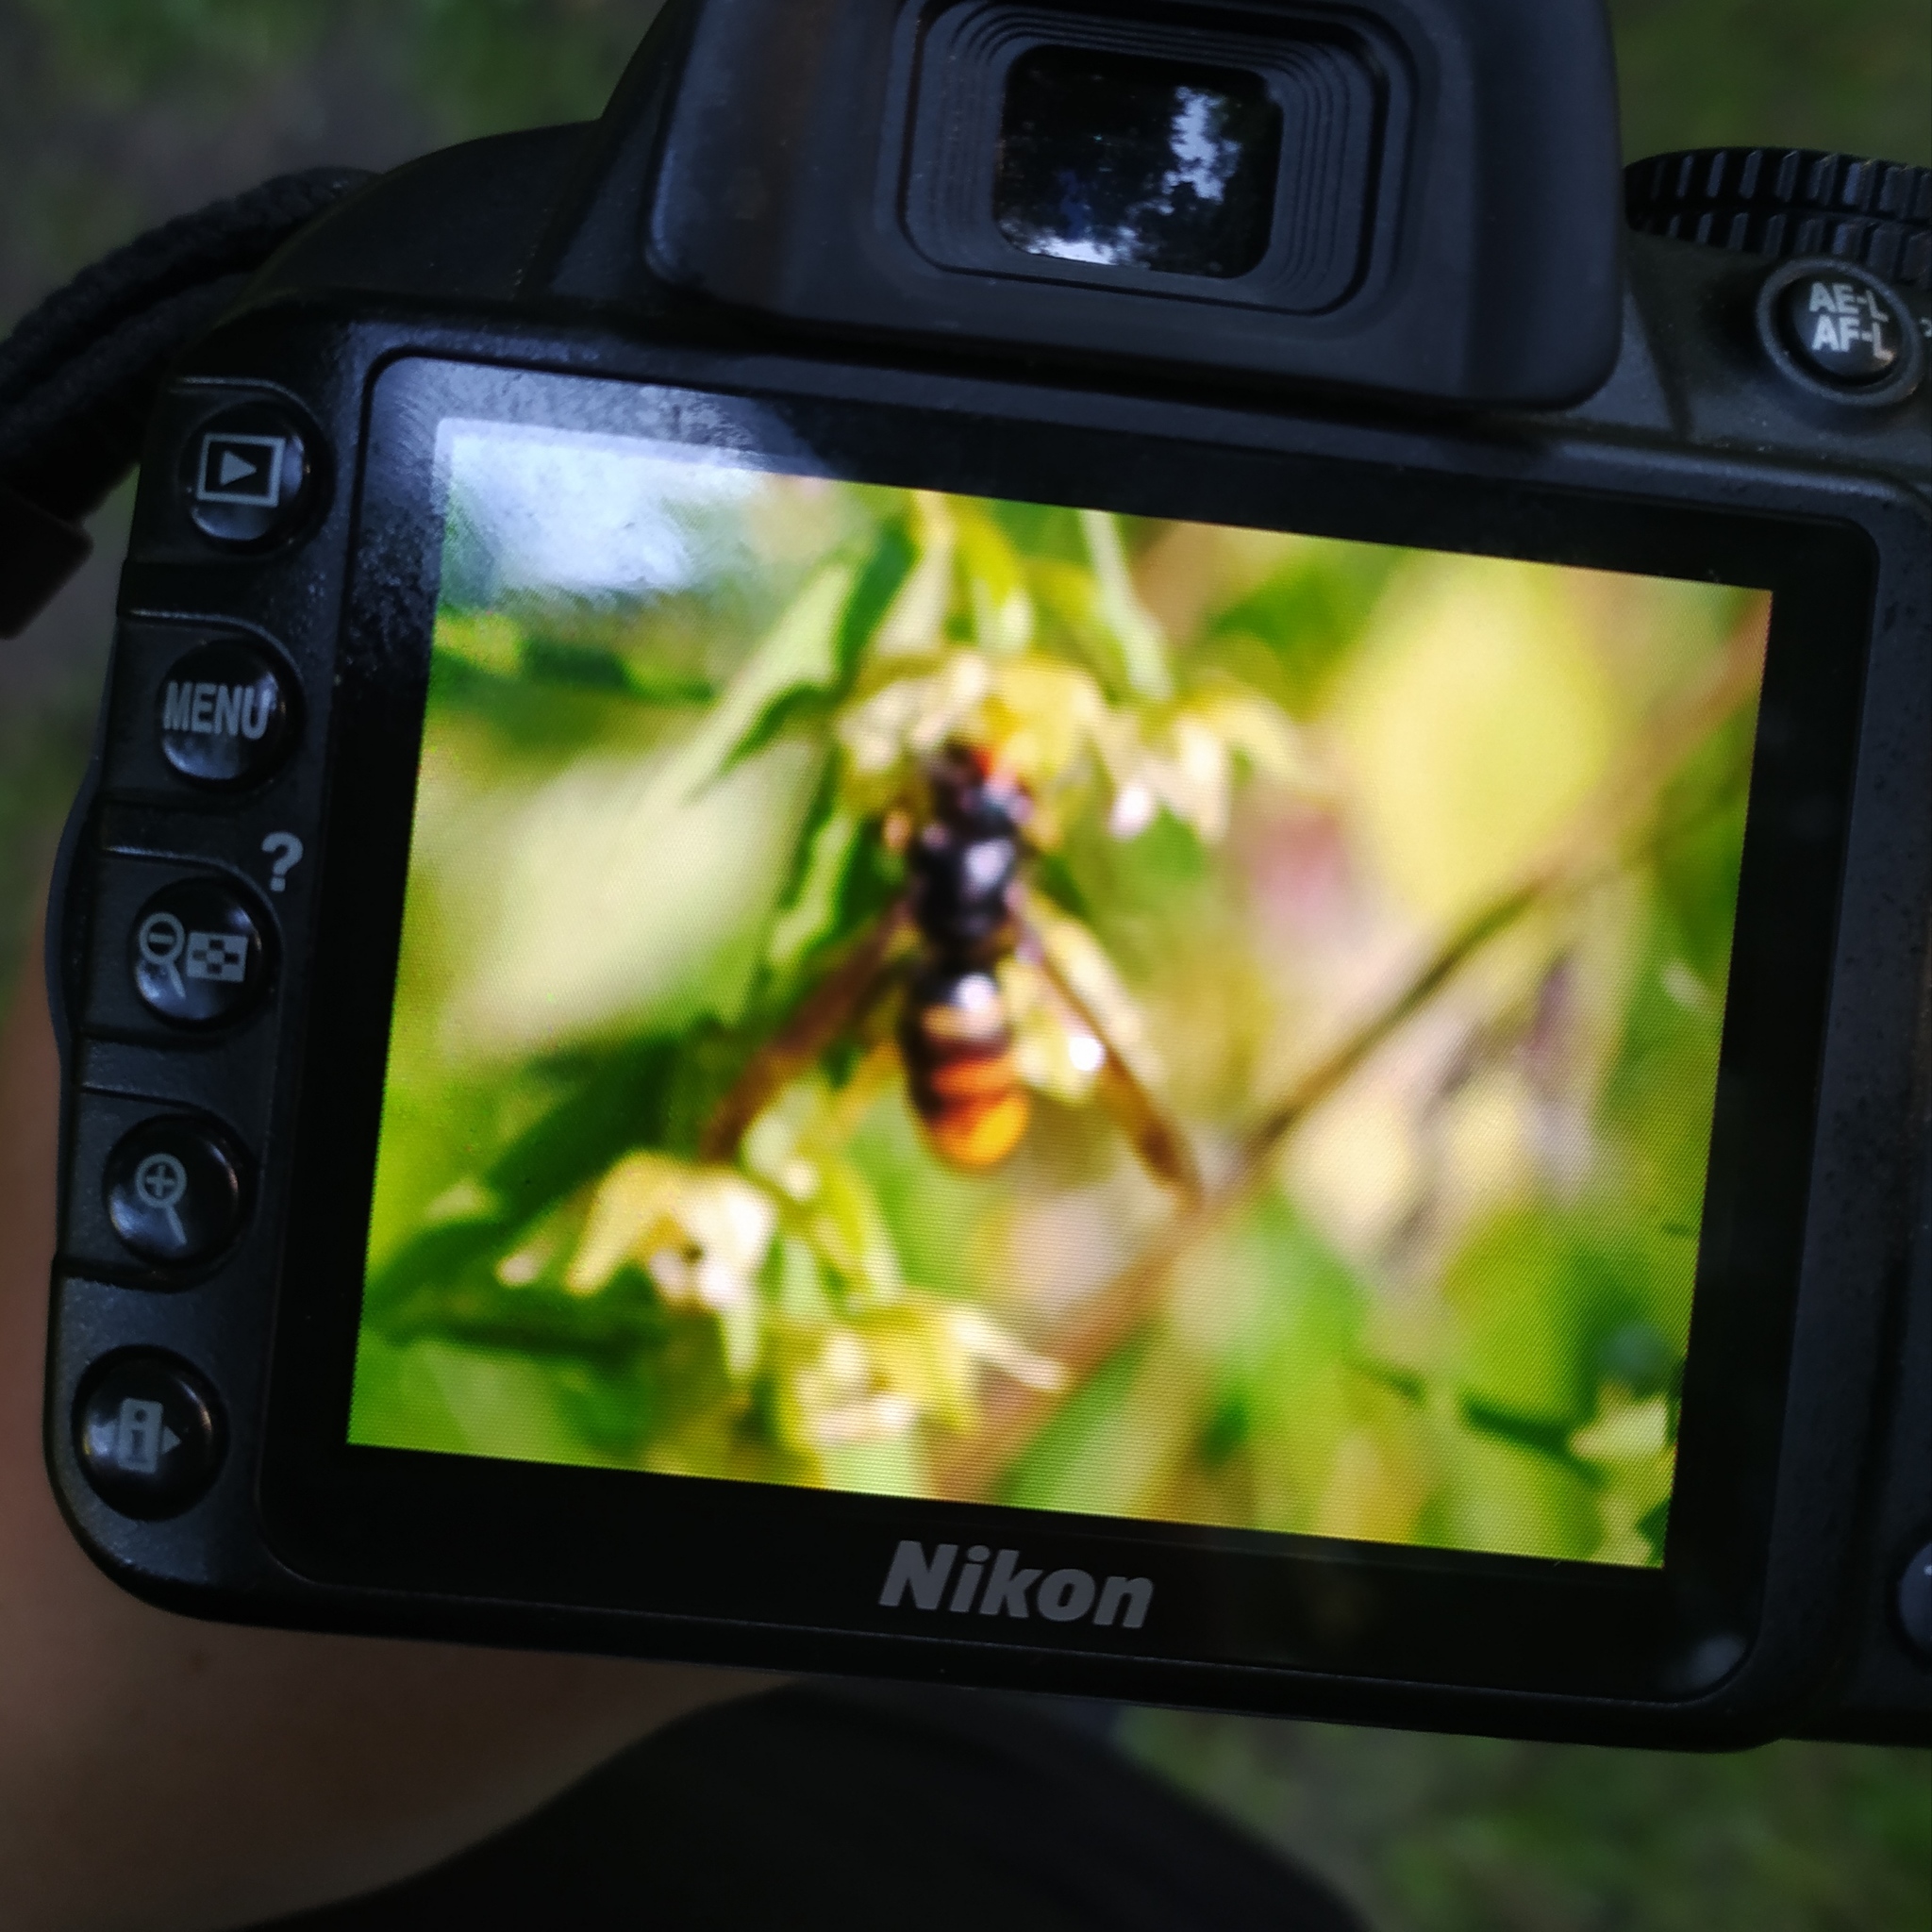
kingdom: Animalia
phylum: Arthropoda
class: Insecta
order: Hymenoptera
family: Vespidae
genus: Vespa
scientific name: Vespa velutina
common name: Asian hornet
